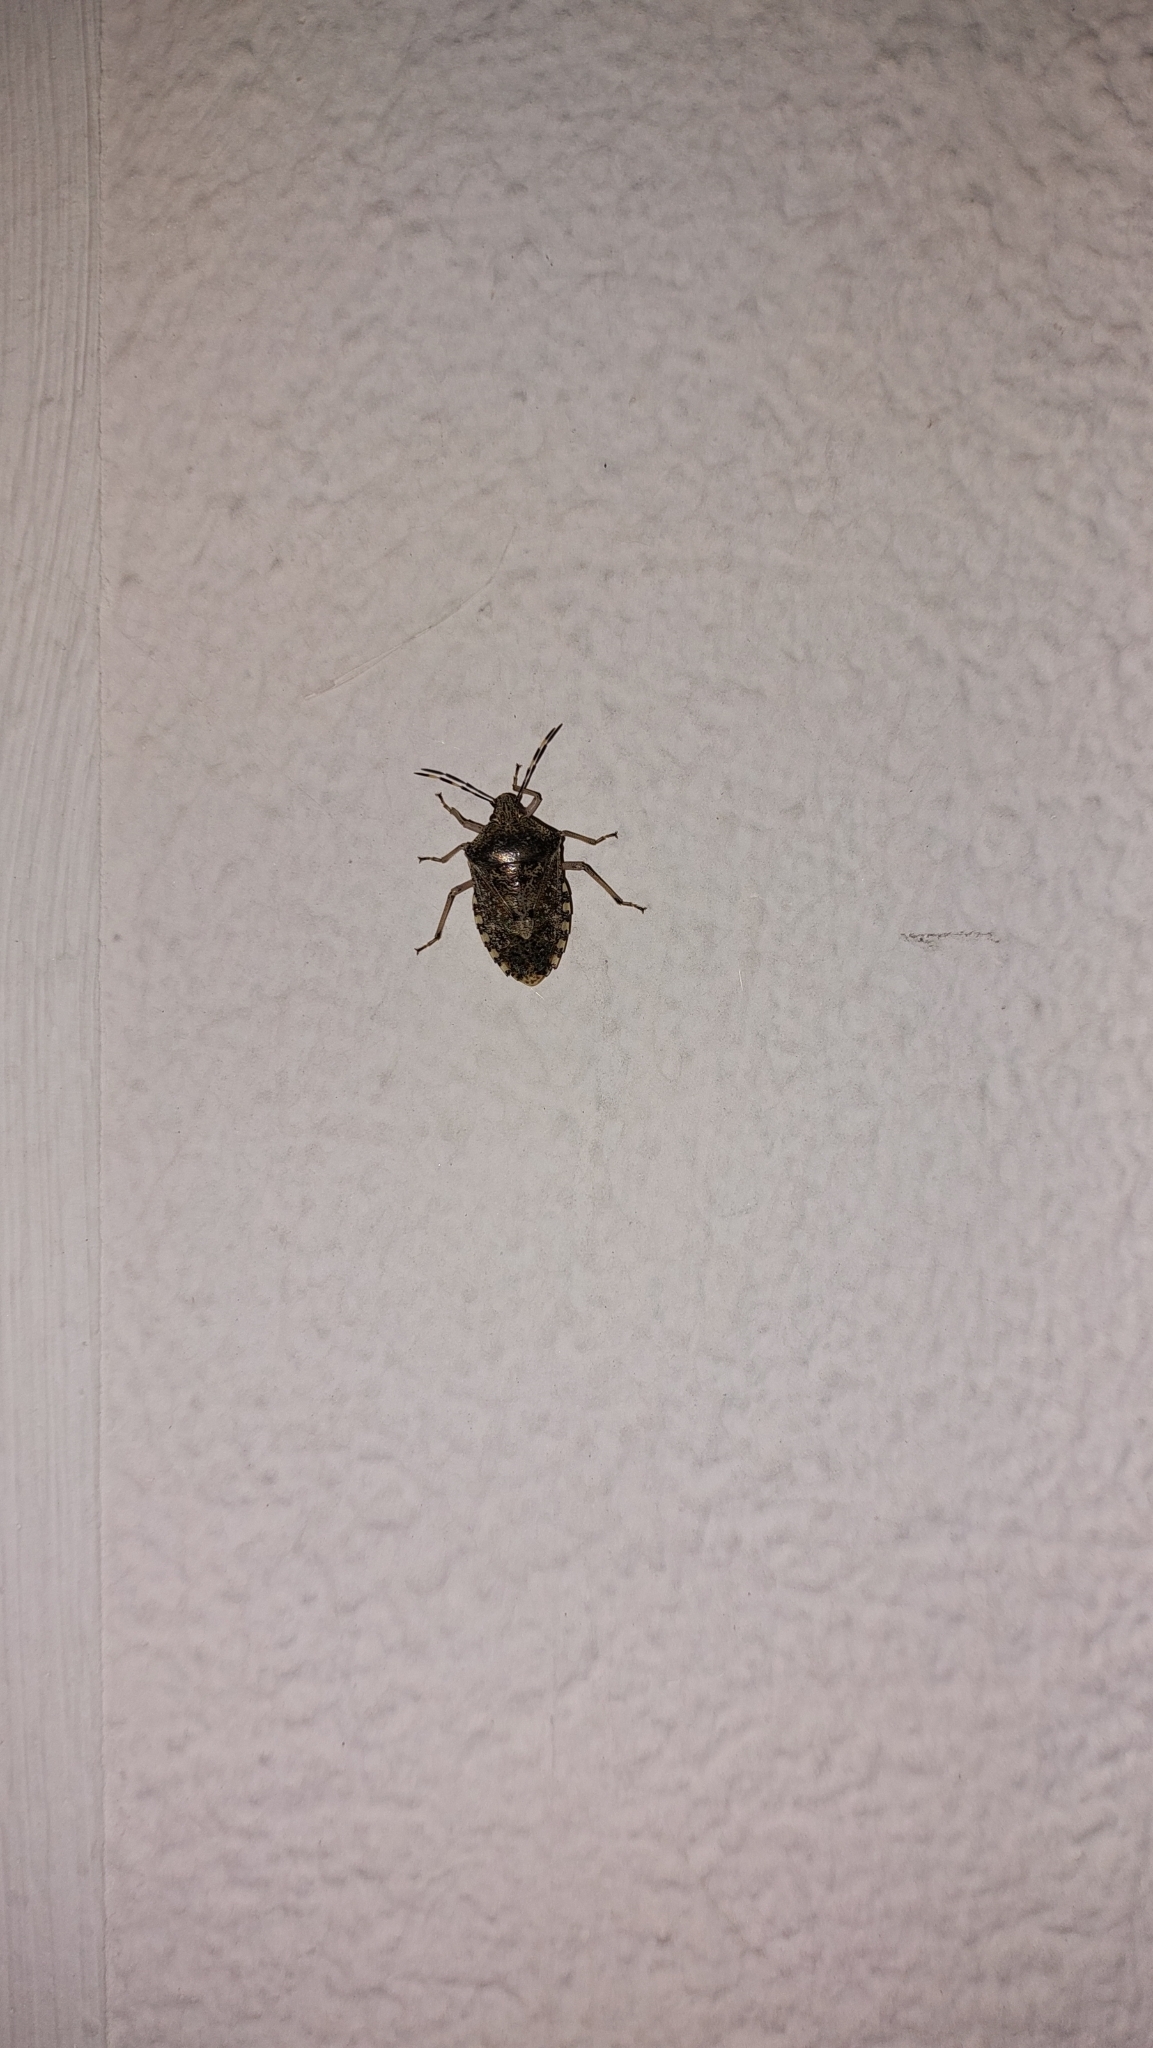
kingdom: Animalia
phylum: Arthropoda
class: Insecta
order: Hemiptera
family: Pentatomidae
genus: Rhaphigaster
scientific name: Rhaphigaster nebulosa
